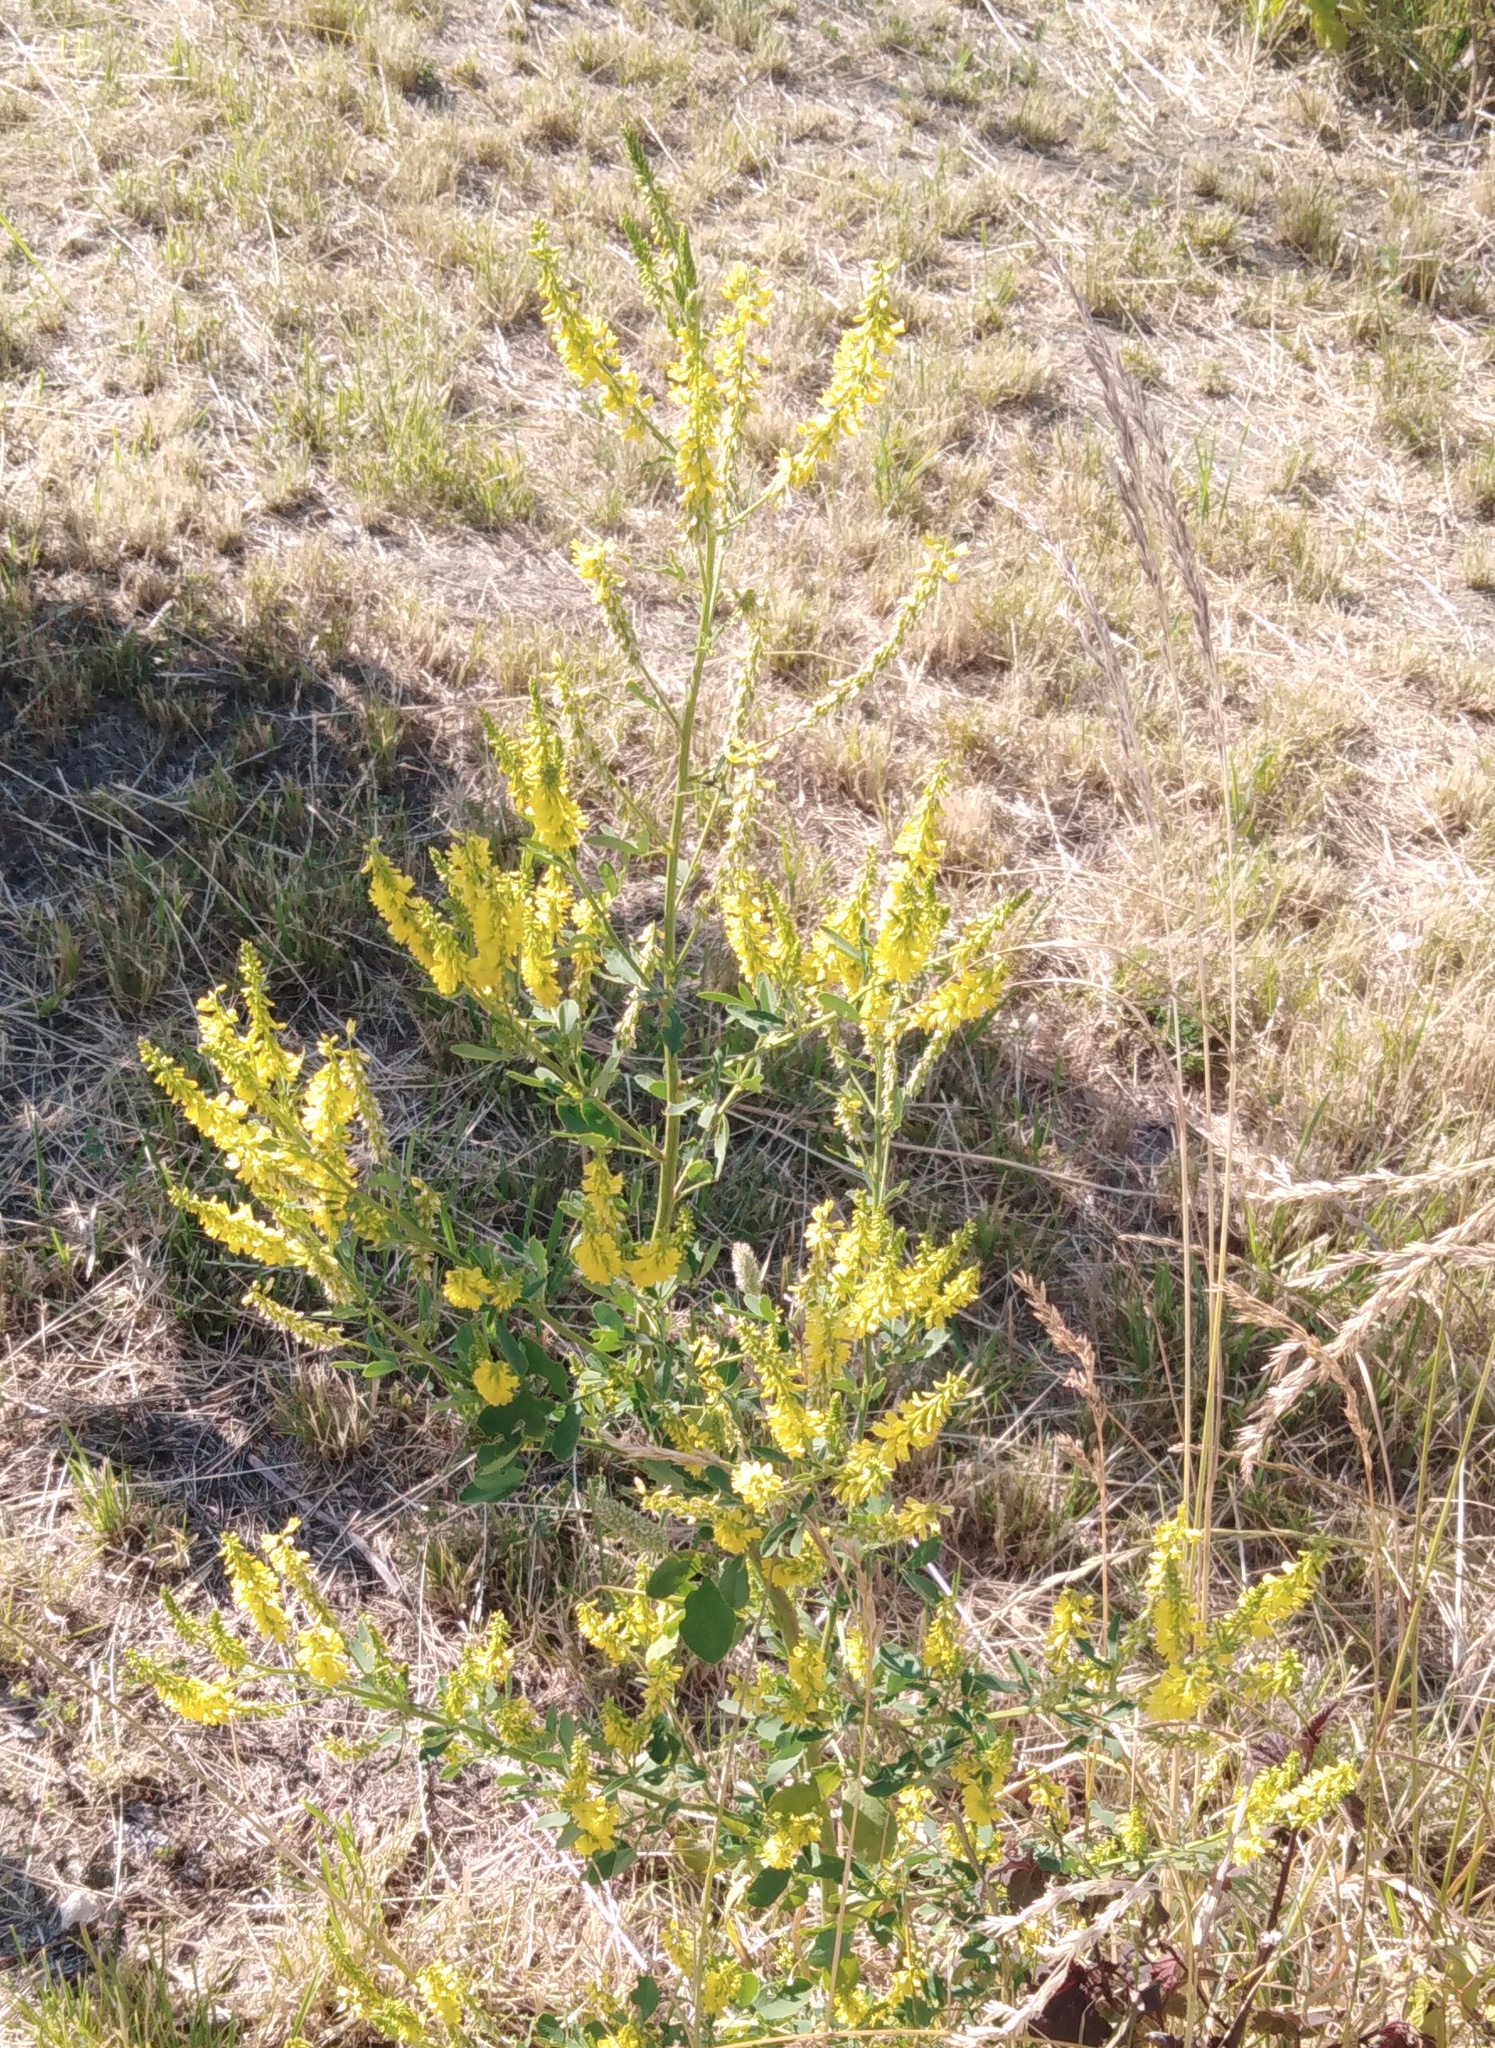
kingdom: Plantae
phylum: Tracheophyta
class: Magnoliopsida
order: Fabales
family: Fabaceae
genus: Melilotus
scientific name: Melilotus officinalis
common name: Sweetclover
